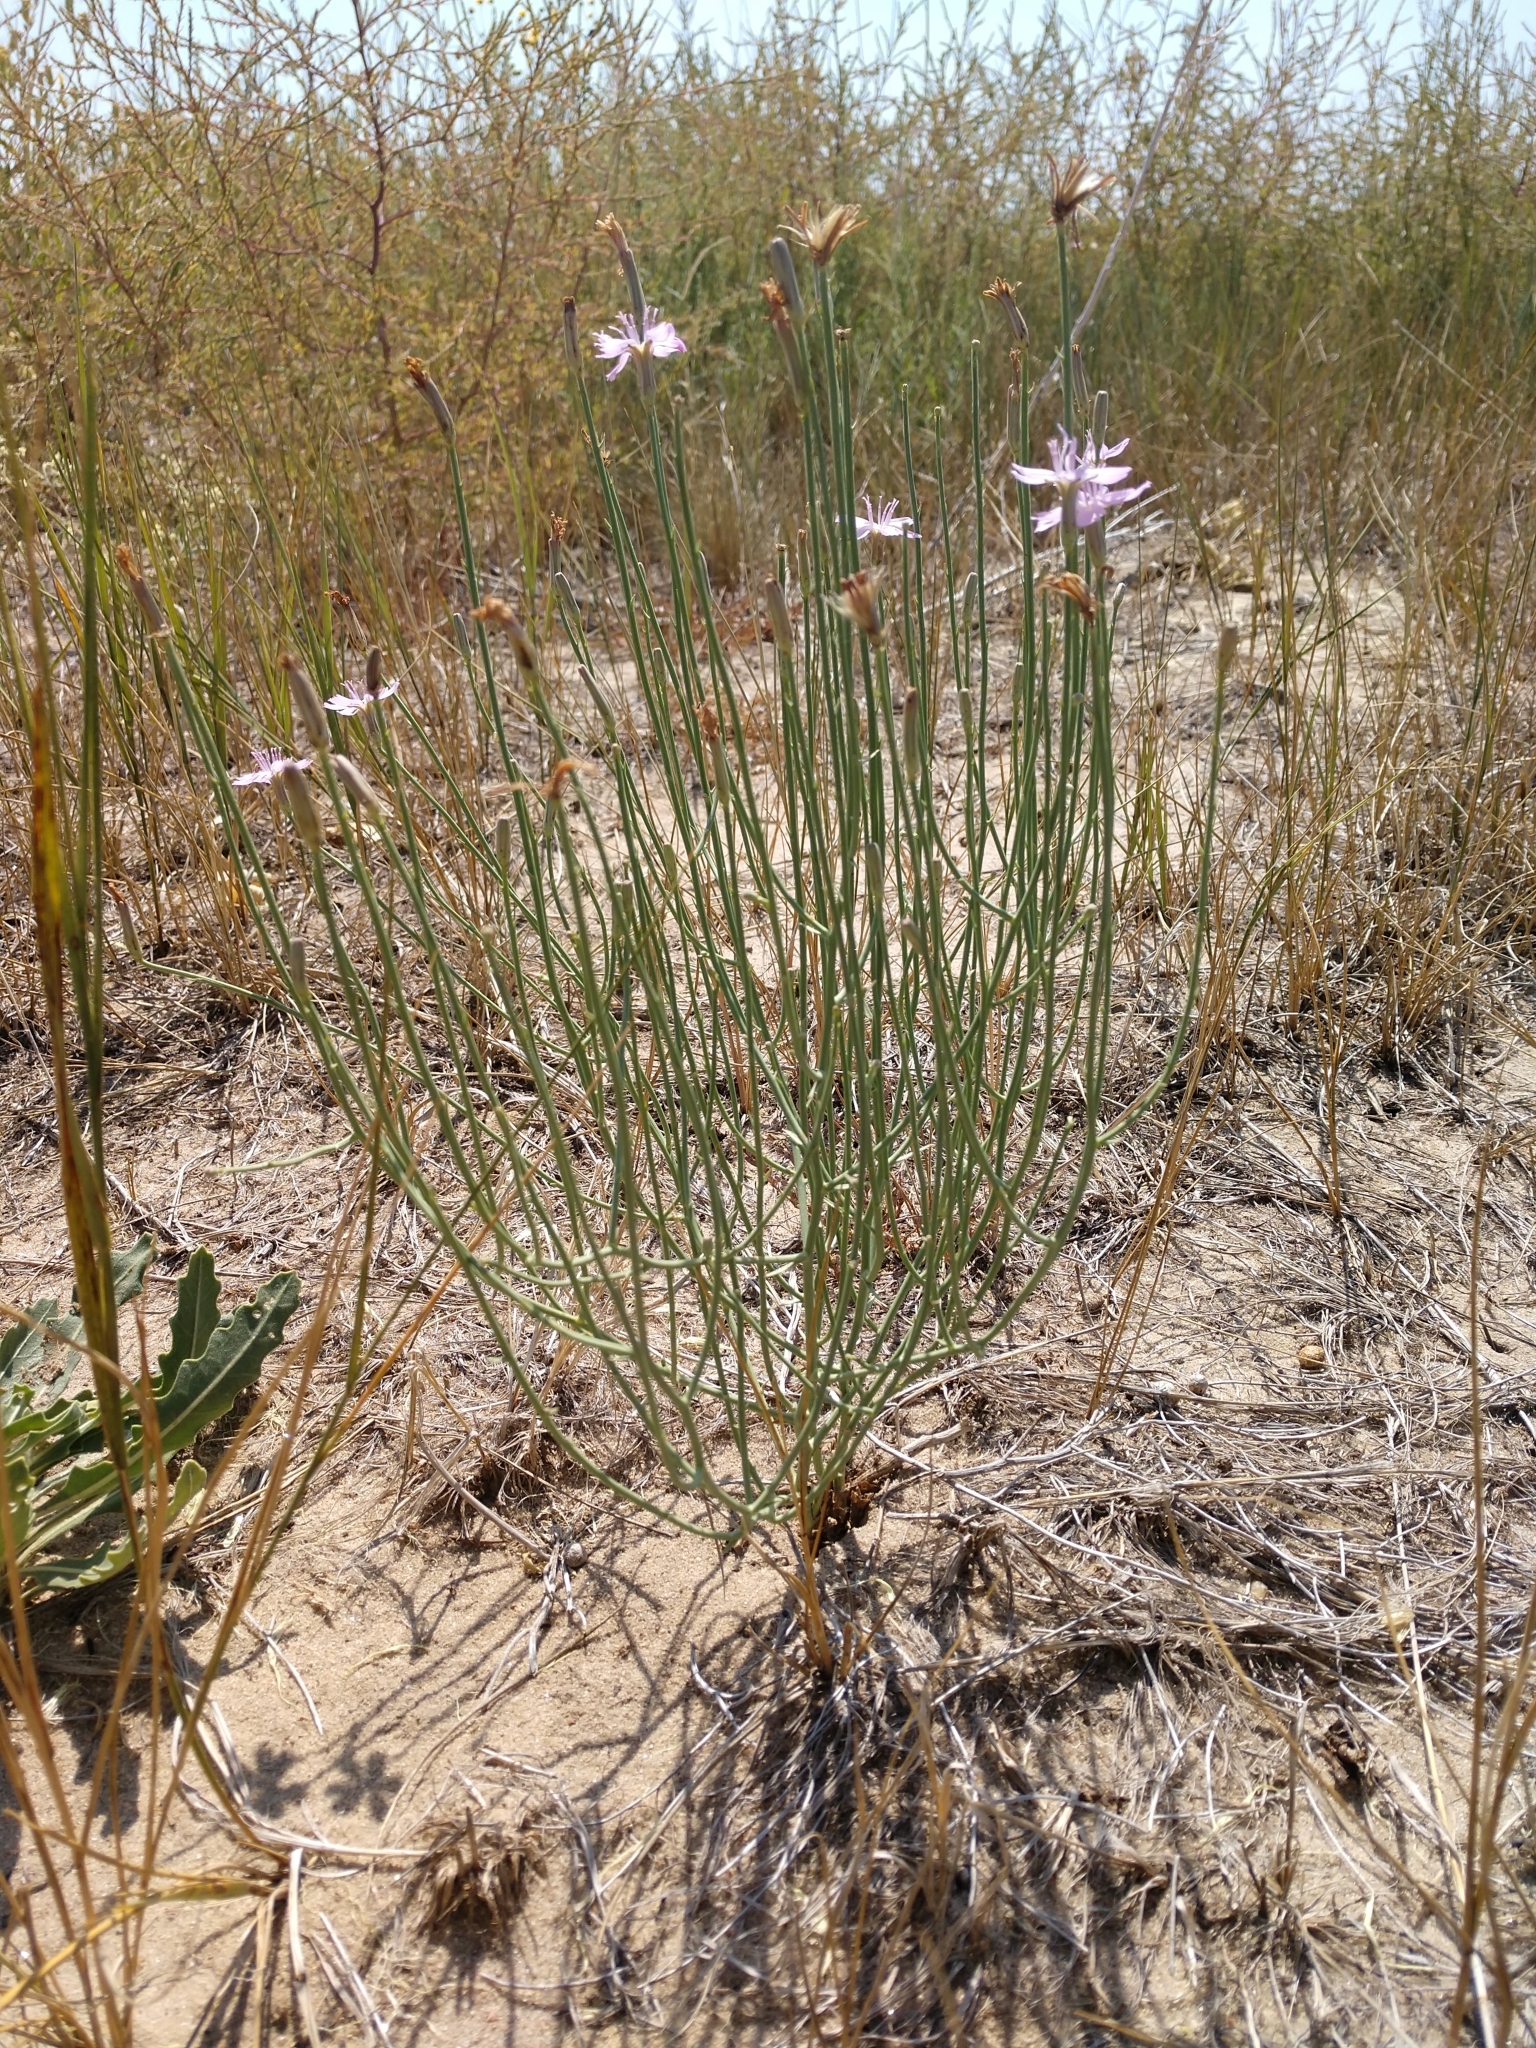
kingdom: Plantae
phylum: Tracheophyta
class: Magnoliopsida
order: Asterales
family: Asteraceae
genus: Lygodesmia
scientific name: Lygodesmia juncea
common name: Common skeletonweed
